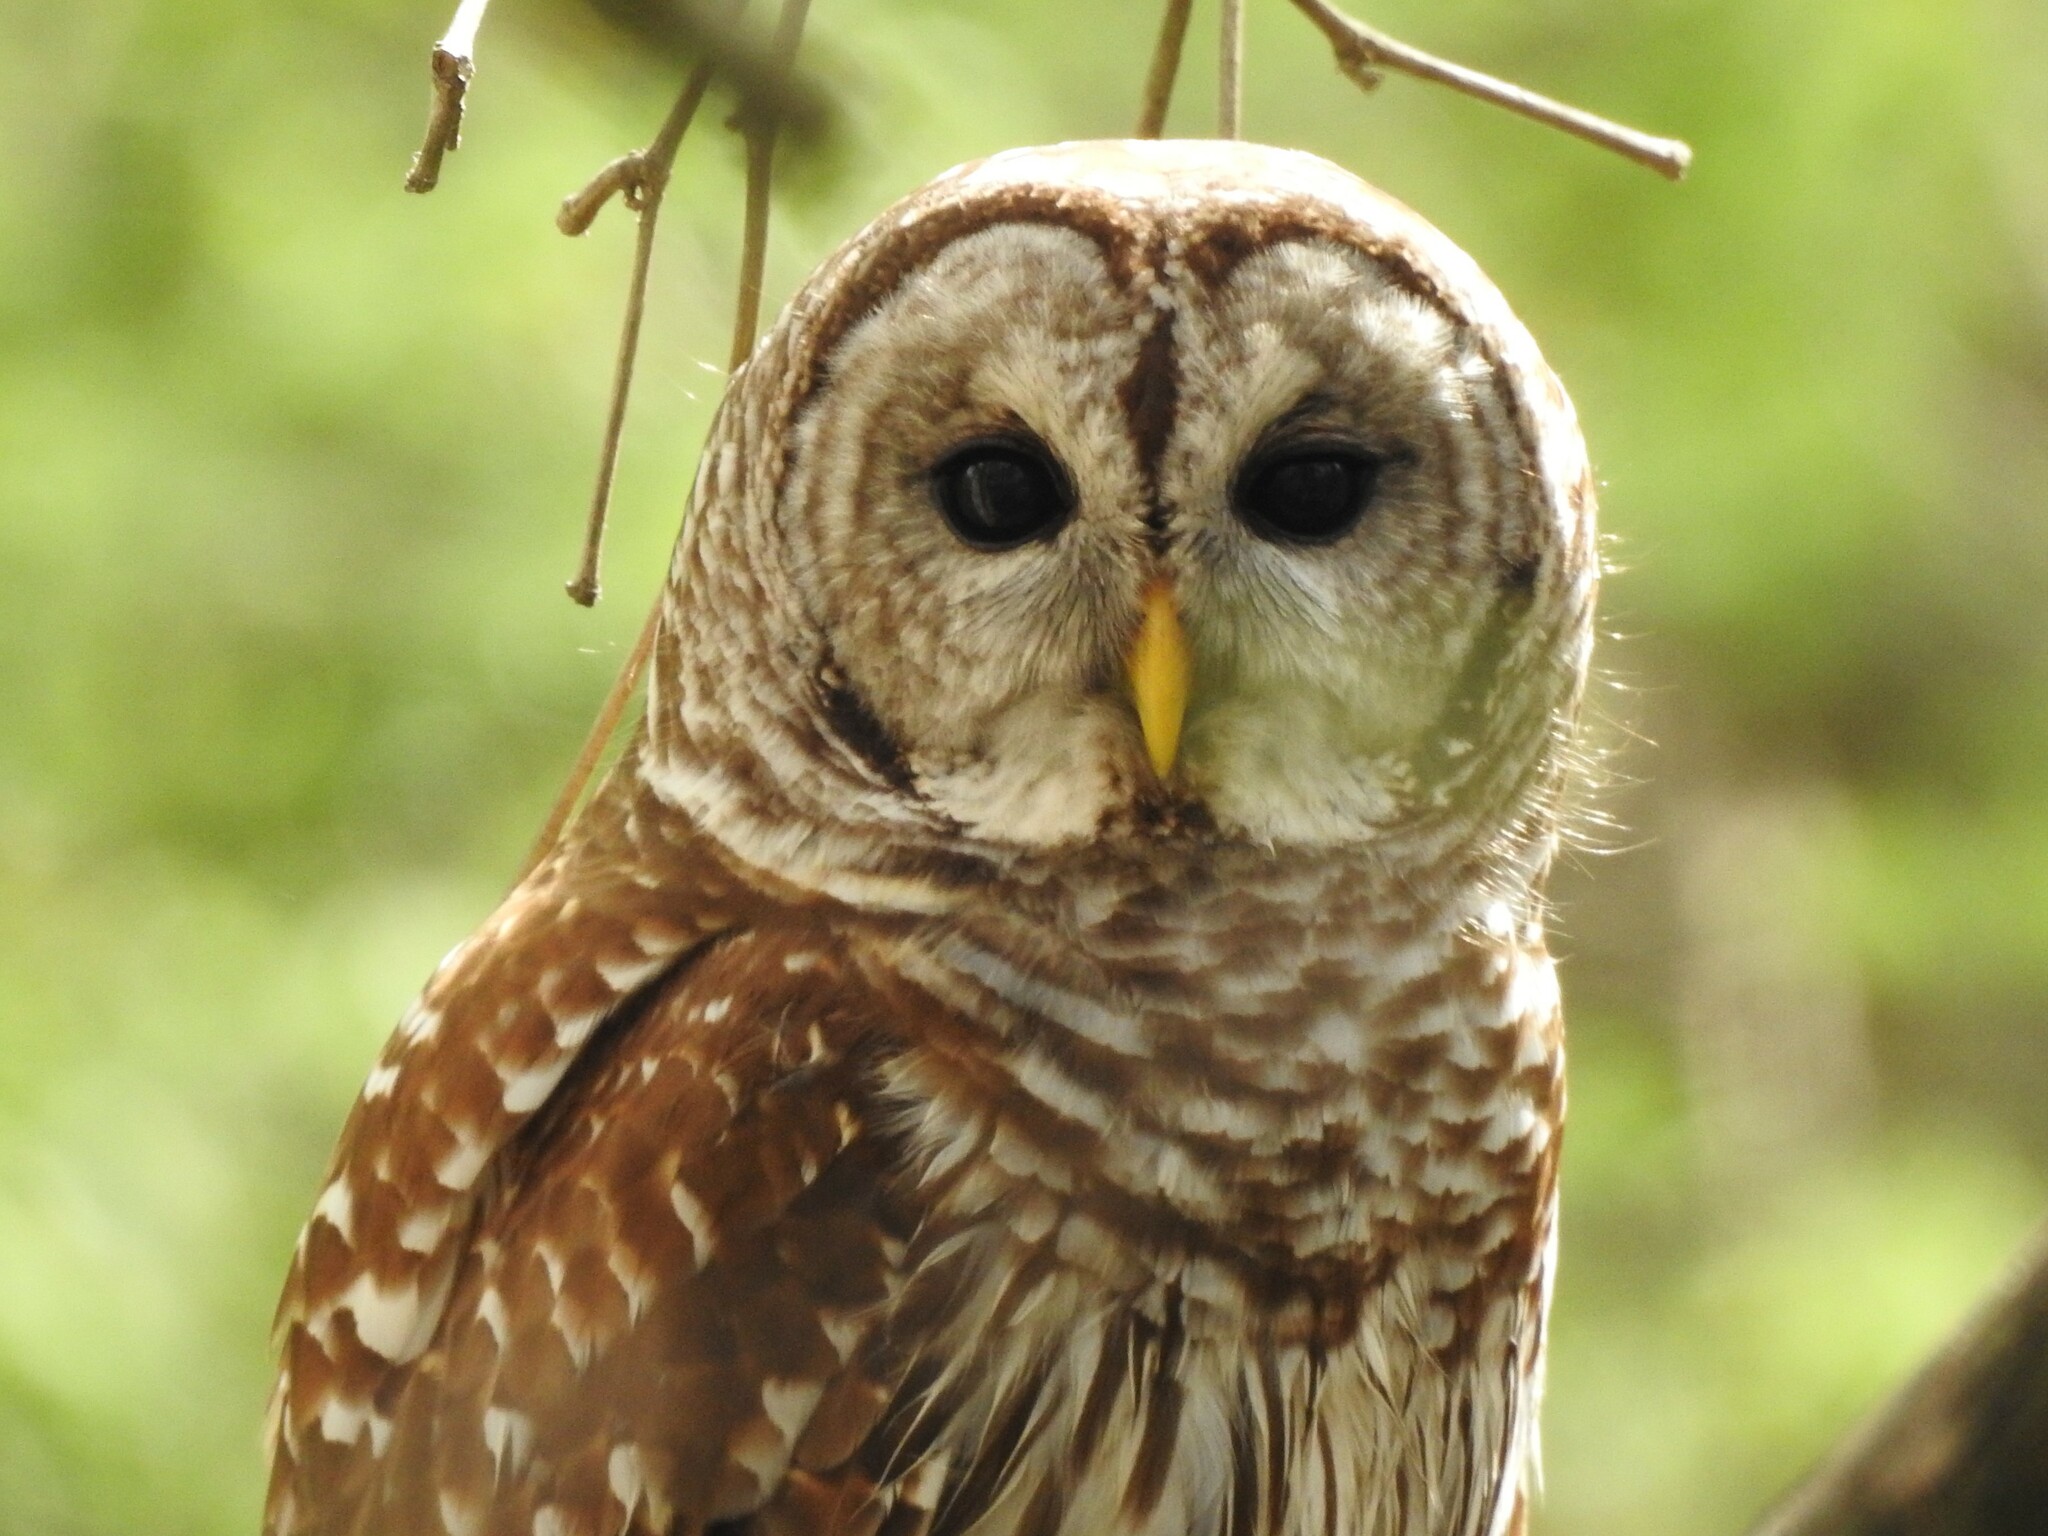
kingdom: Animalia
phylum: Chordata
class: Aves
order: Strigiformes
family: Strigidae
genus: Strix
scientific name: Strix varia
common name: Barred owl
